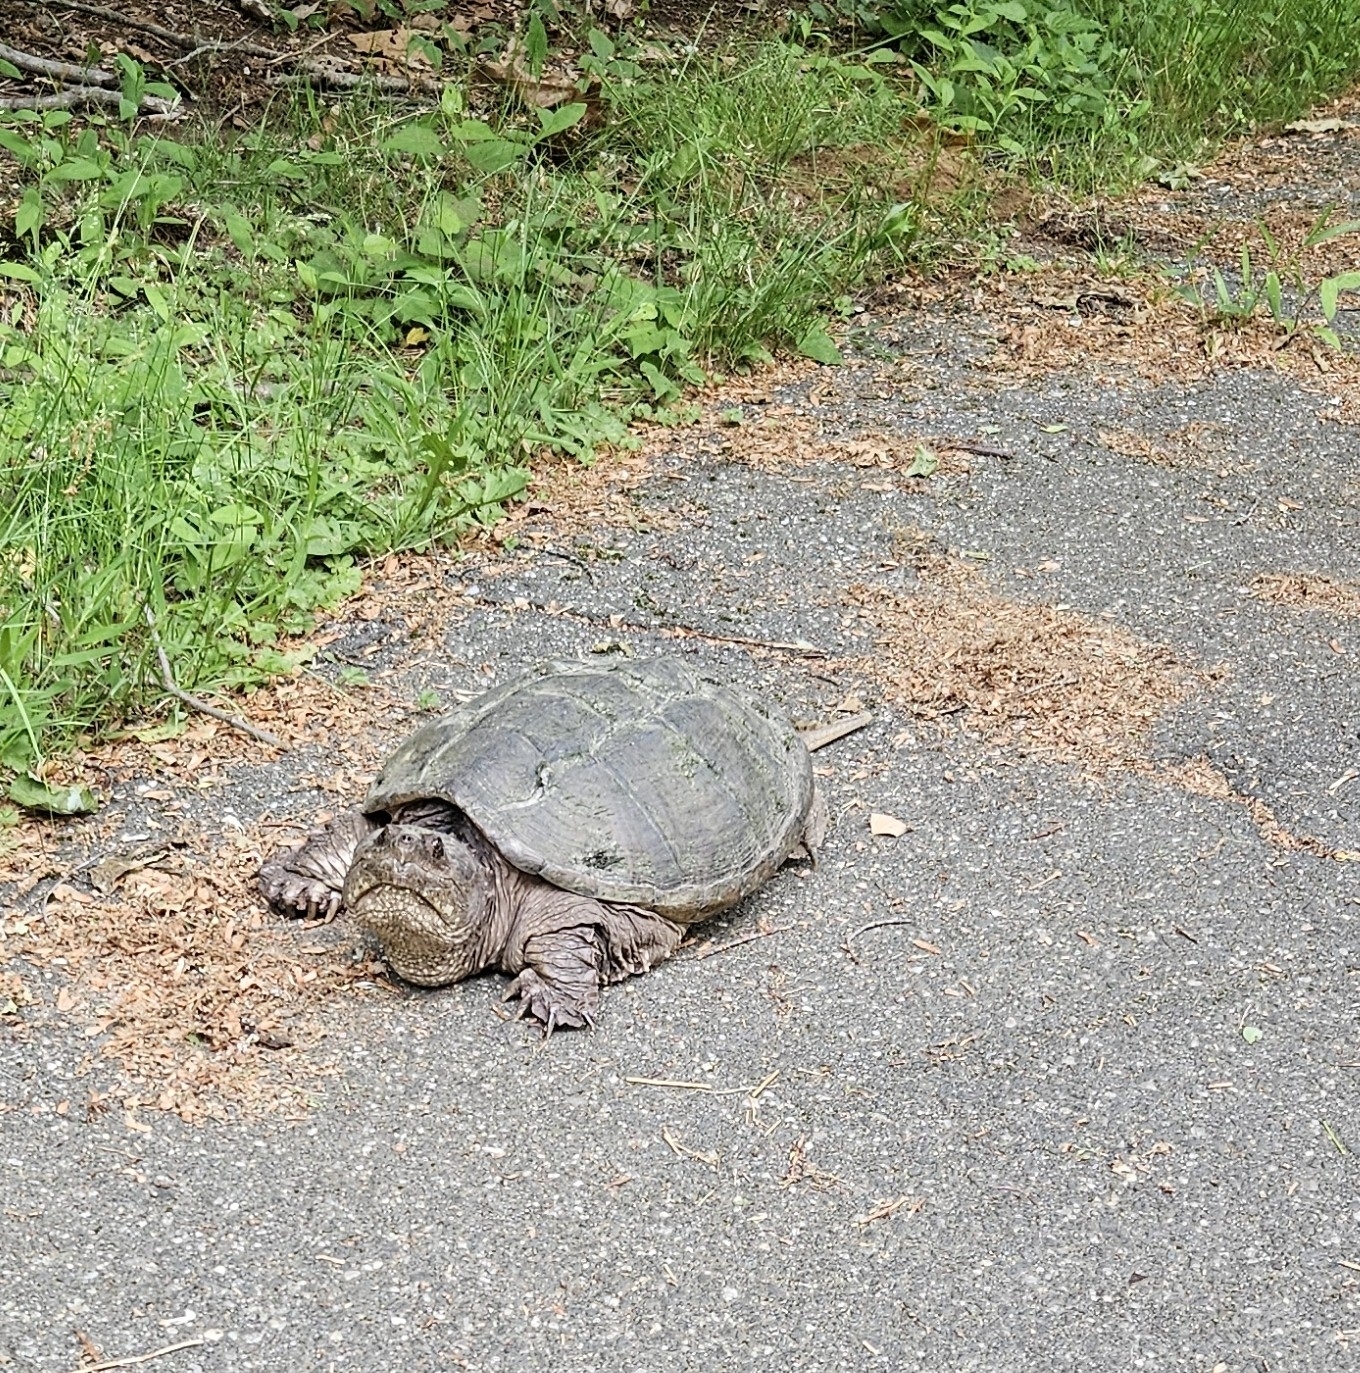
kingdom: Animalia
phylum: Chordata
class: Testudines
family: Chelydridae
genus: Chelydra
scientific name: Chelydra serpentina
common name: Common snapping turtle
